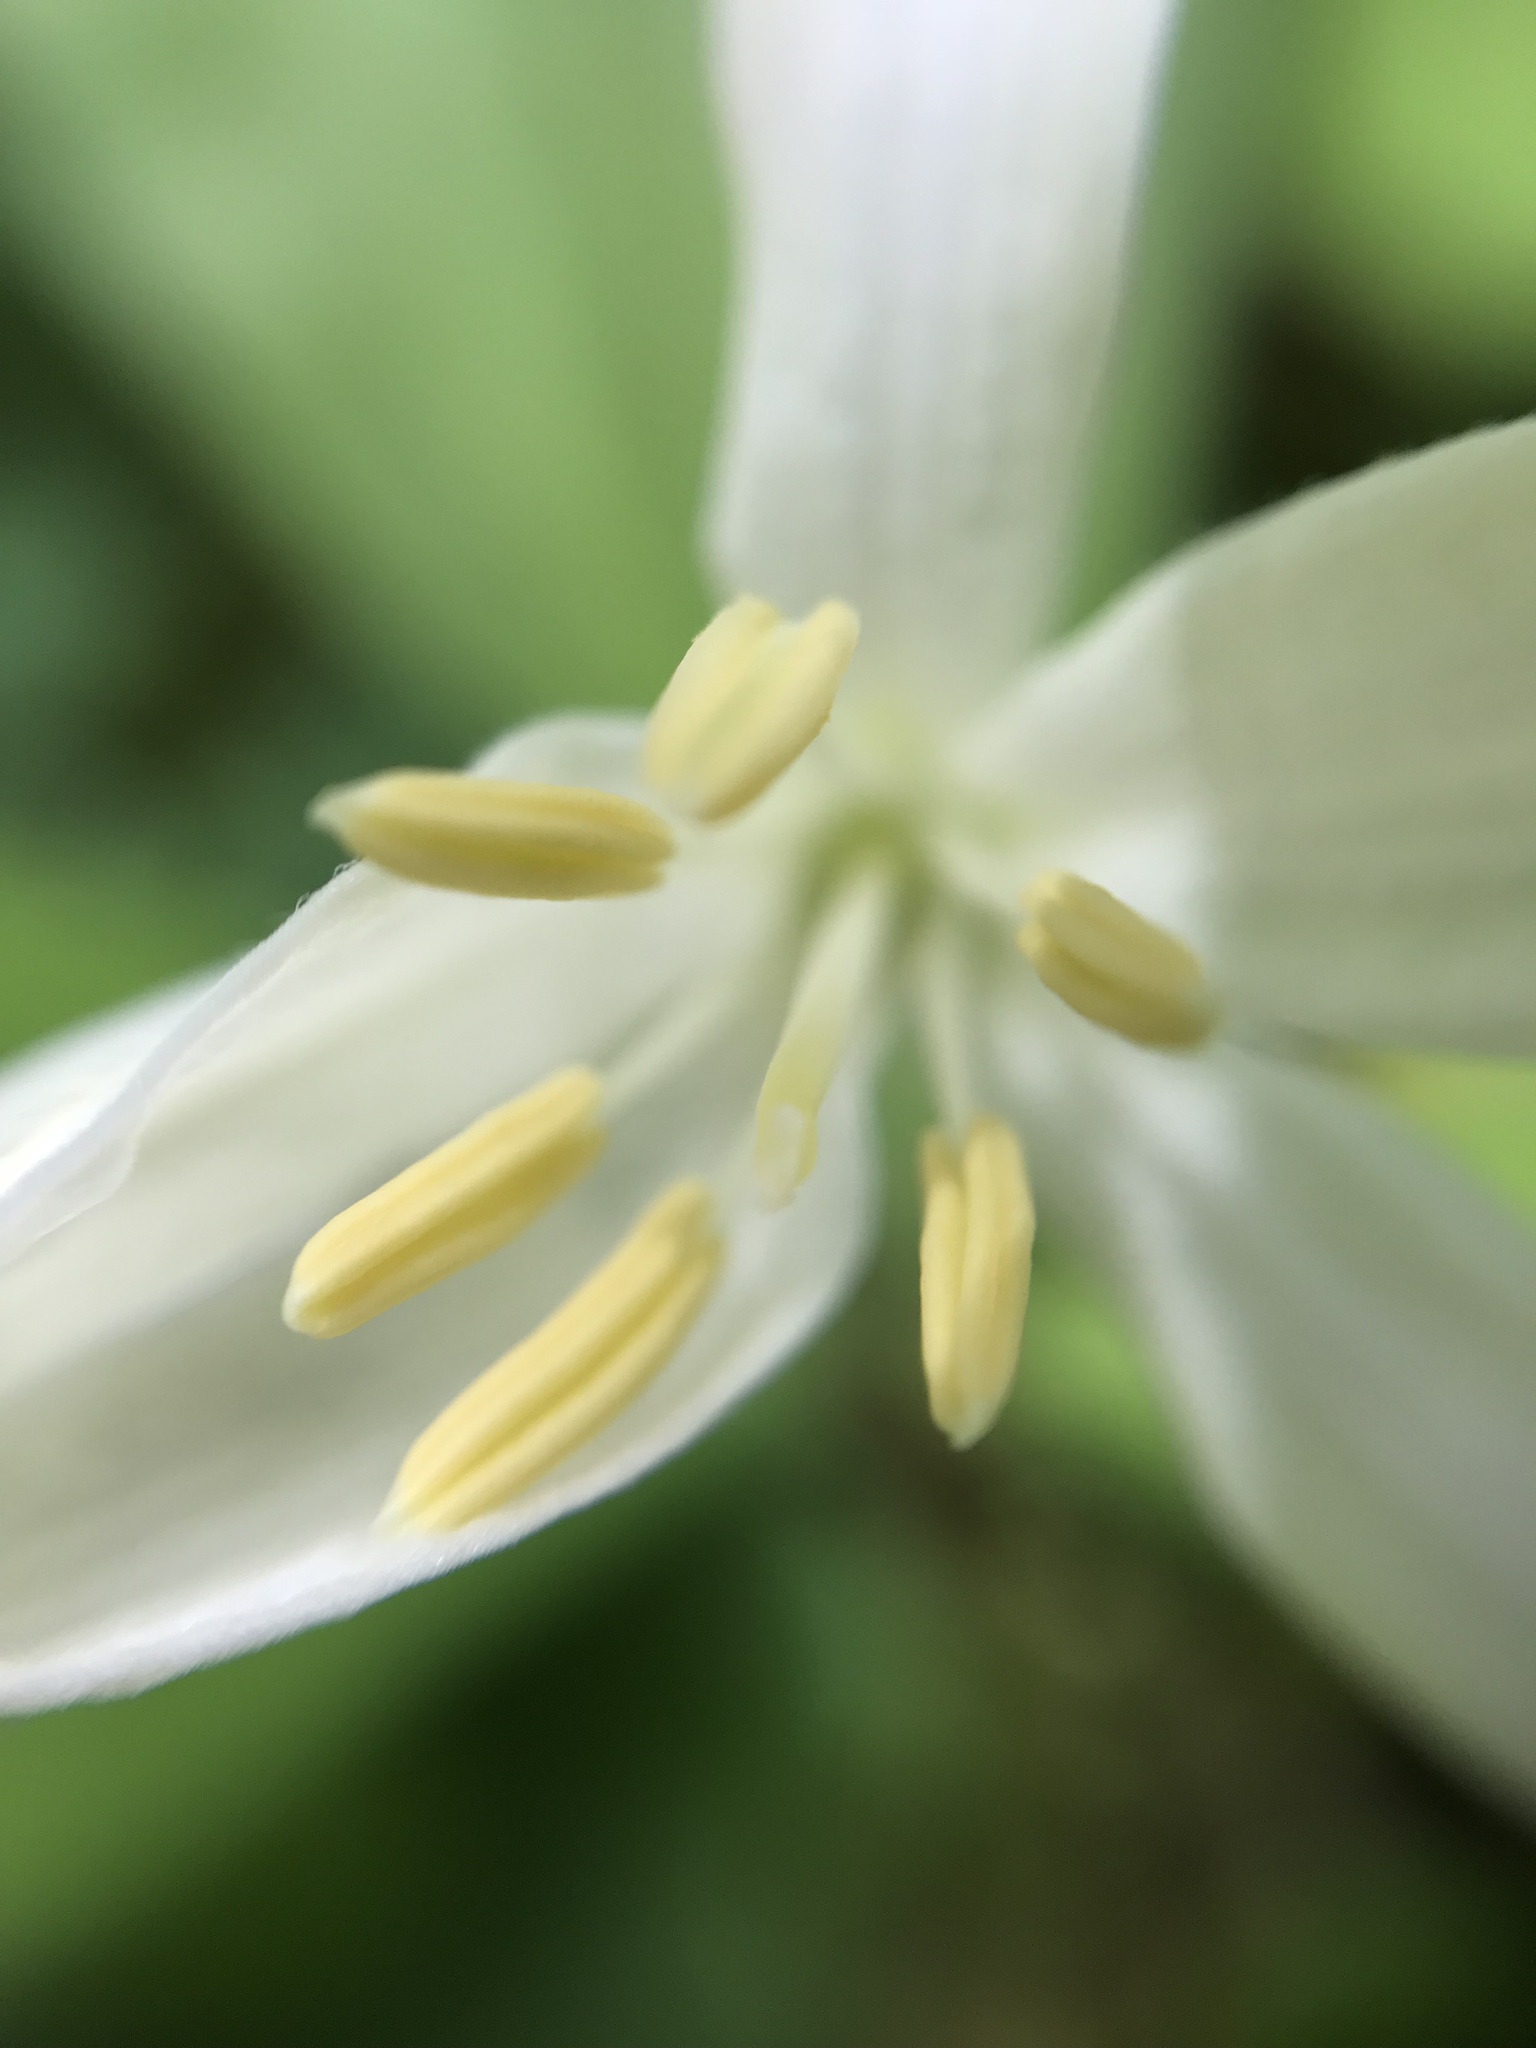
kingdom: Plantae
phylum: Tracheophyta
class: Liliopsida
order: Liliales
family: Liliaceae
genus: Clintonia
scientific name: Clintonia uniflora
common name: Queen's cup
